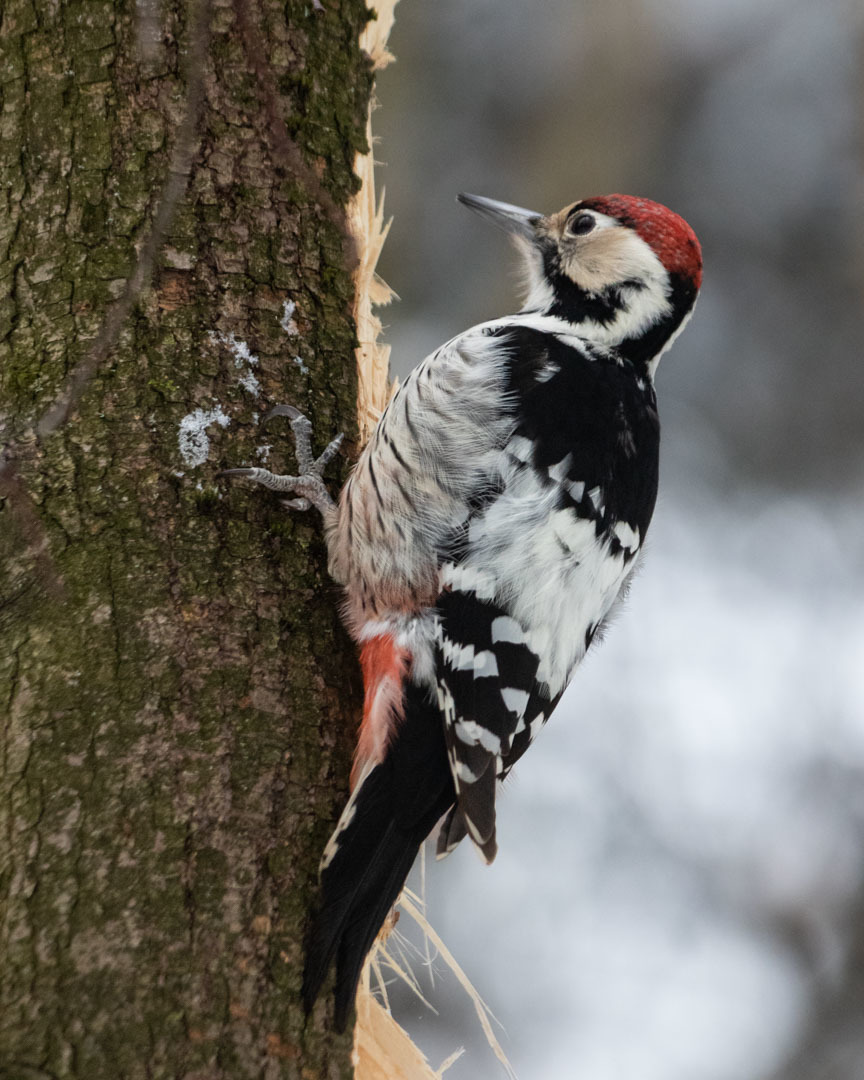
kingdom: Animalia
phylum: Chordata
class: Aves
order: Piciformes
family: Picidae
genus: Dendrocopos
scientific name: Dendrocopos leucotos
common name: White-backed woodpecker
